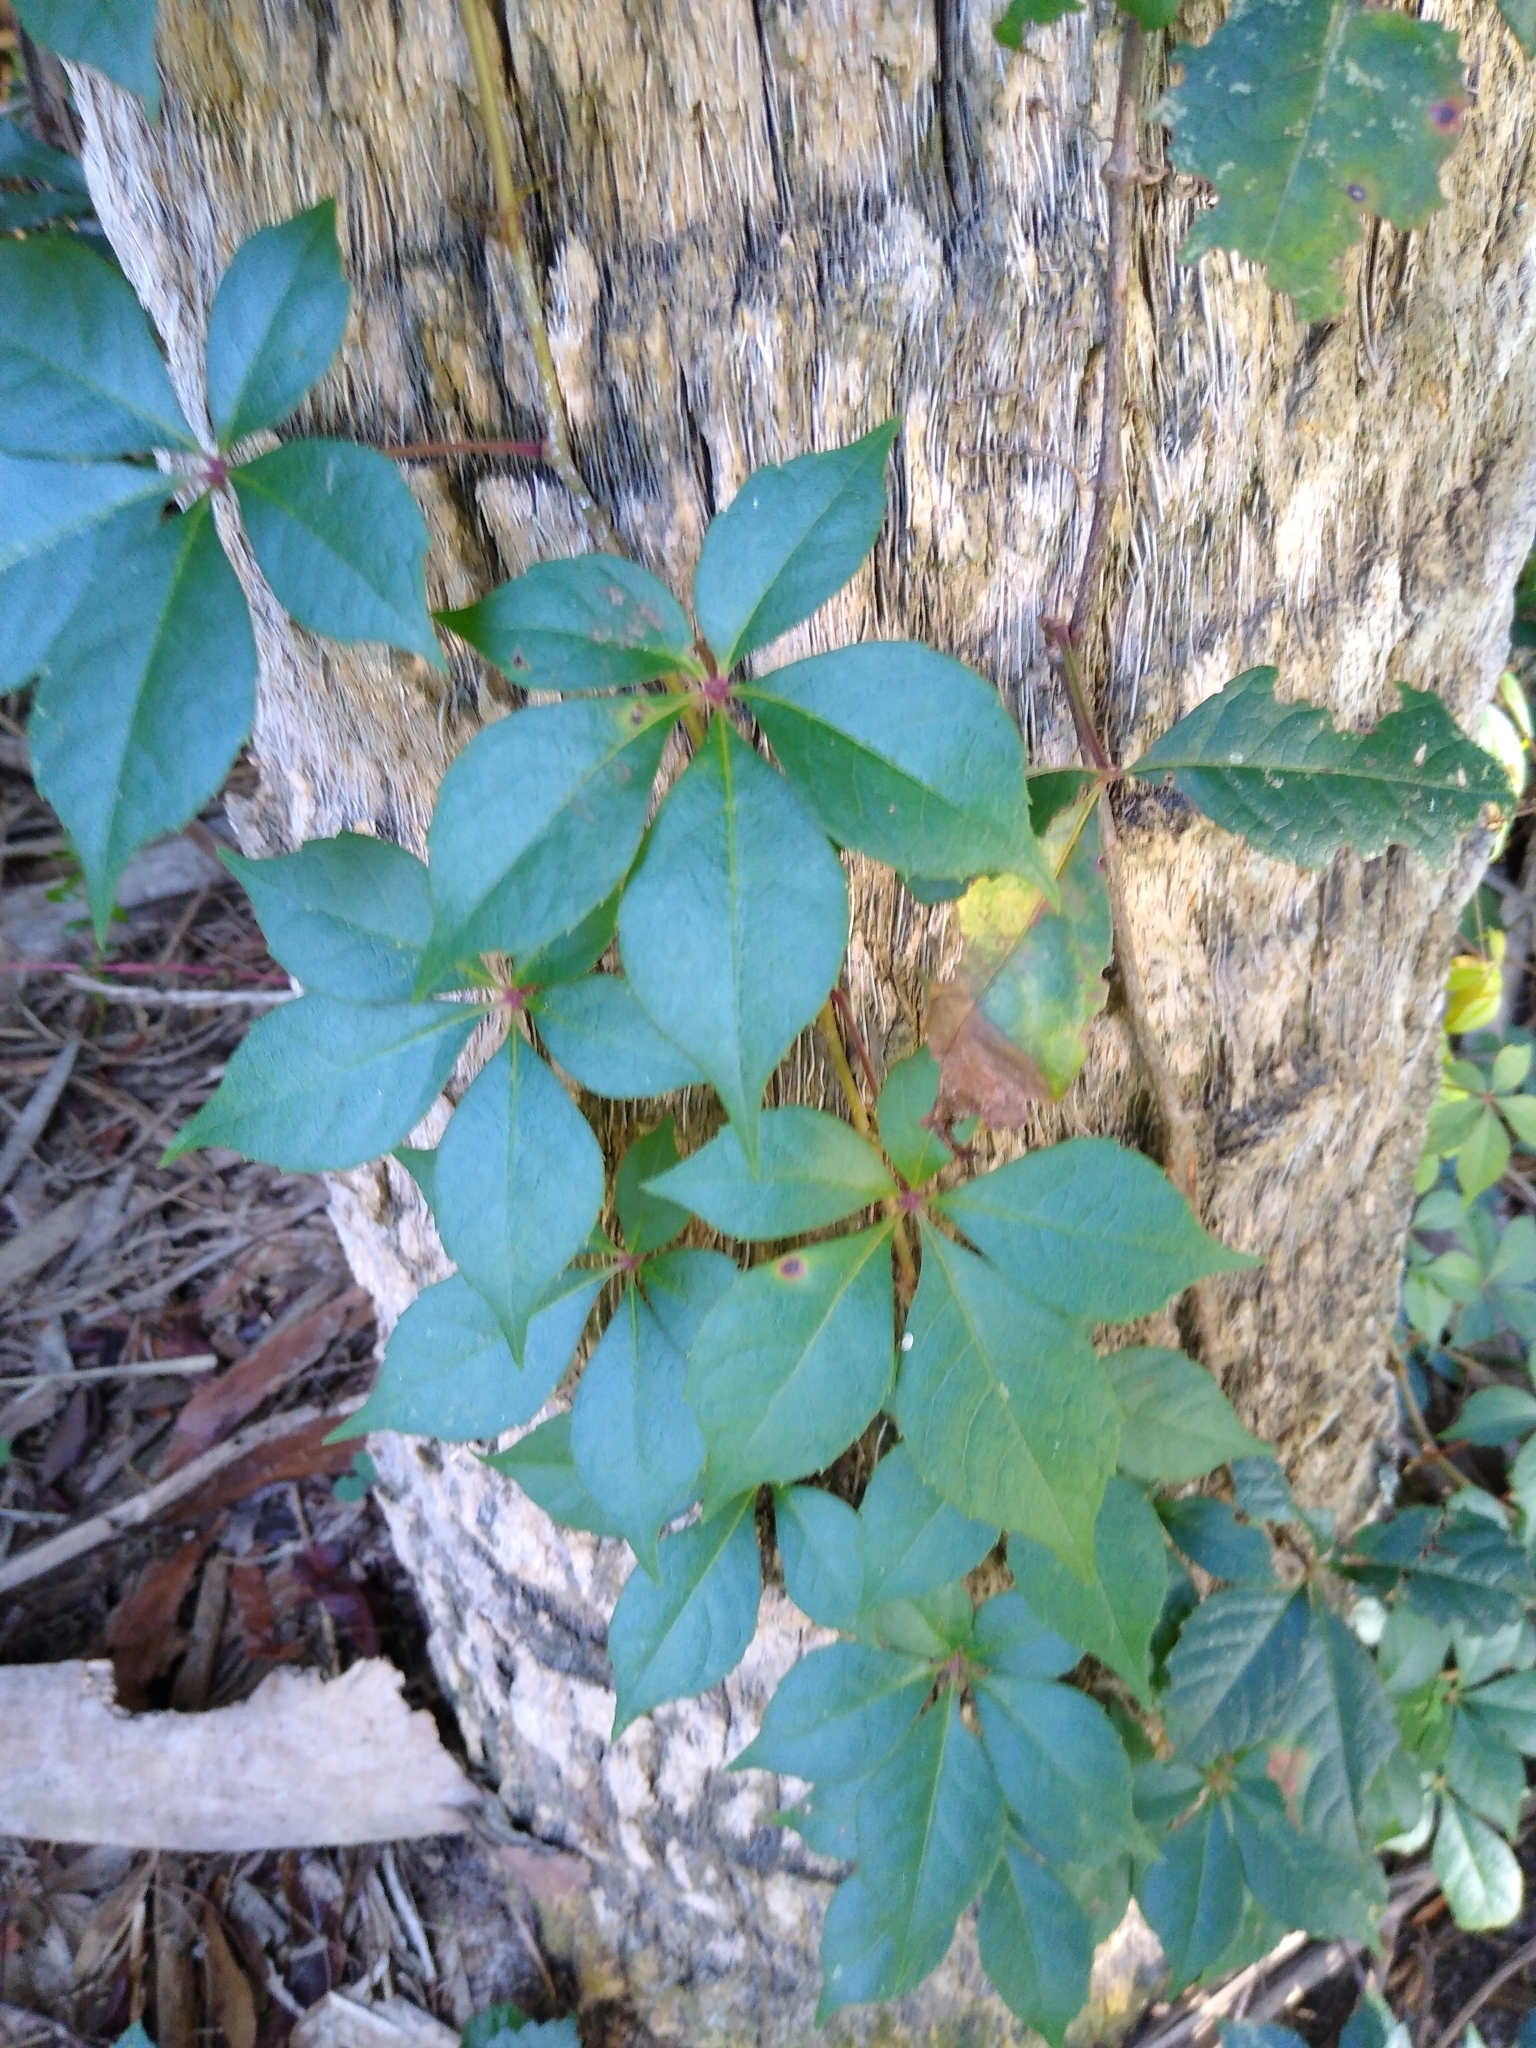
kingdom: Plantae
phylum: Tracheophyta
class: Magnoliopsida
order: Vitales
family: Vitaceae
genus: Parthenocissus
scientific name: Parthenocissus quinquefolia
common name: Virginia-creeper
